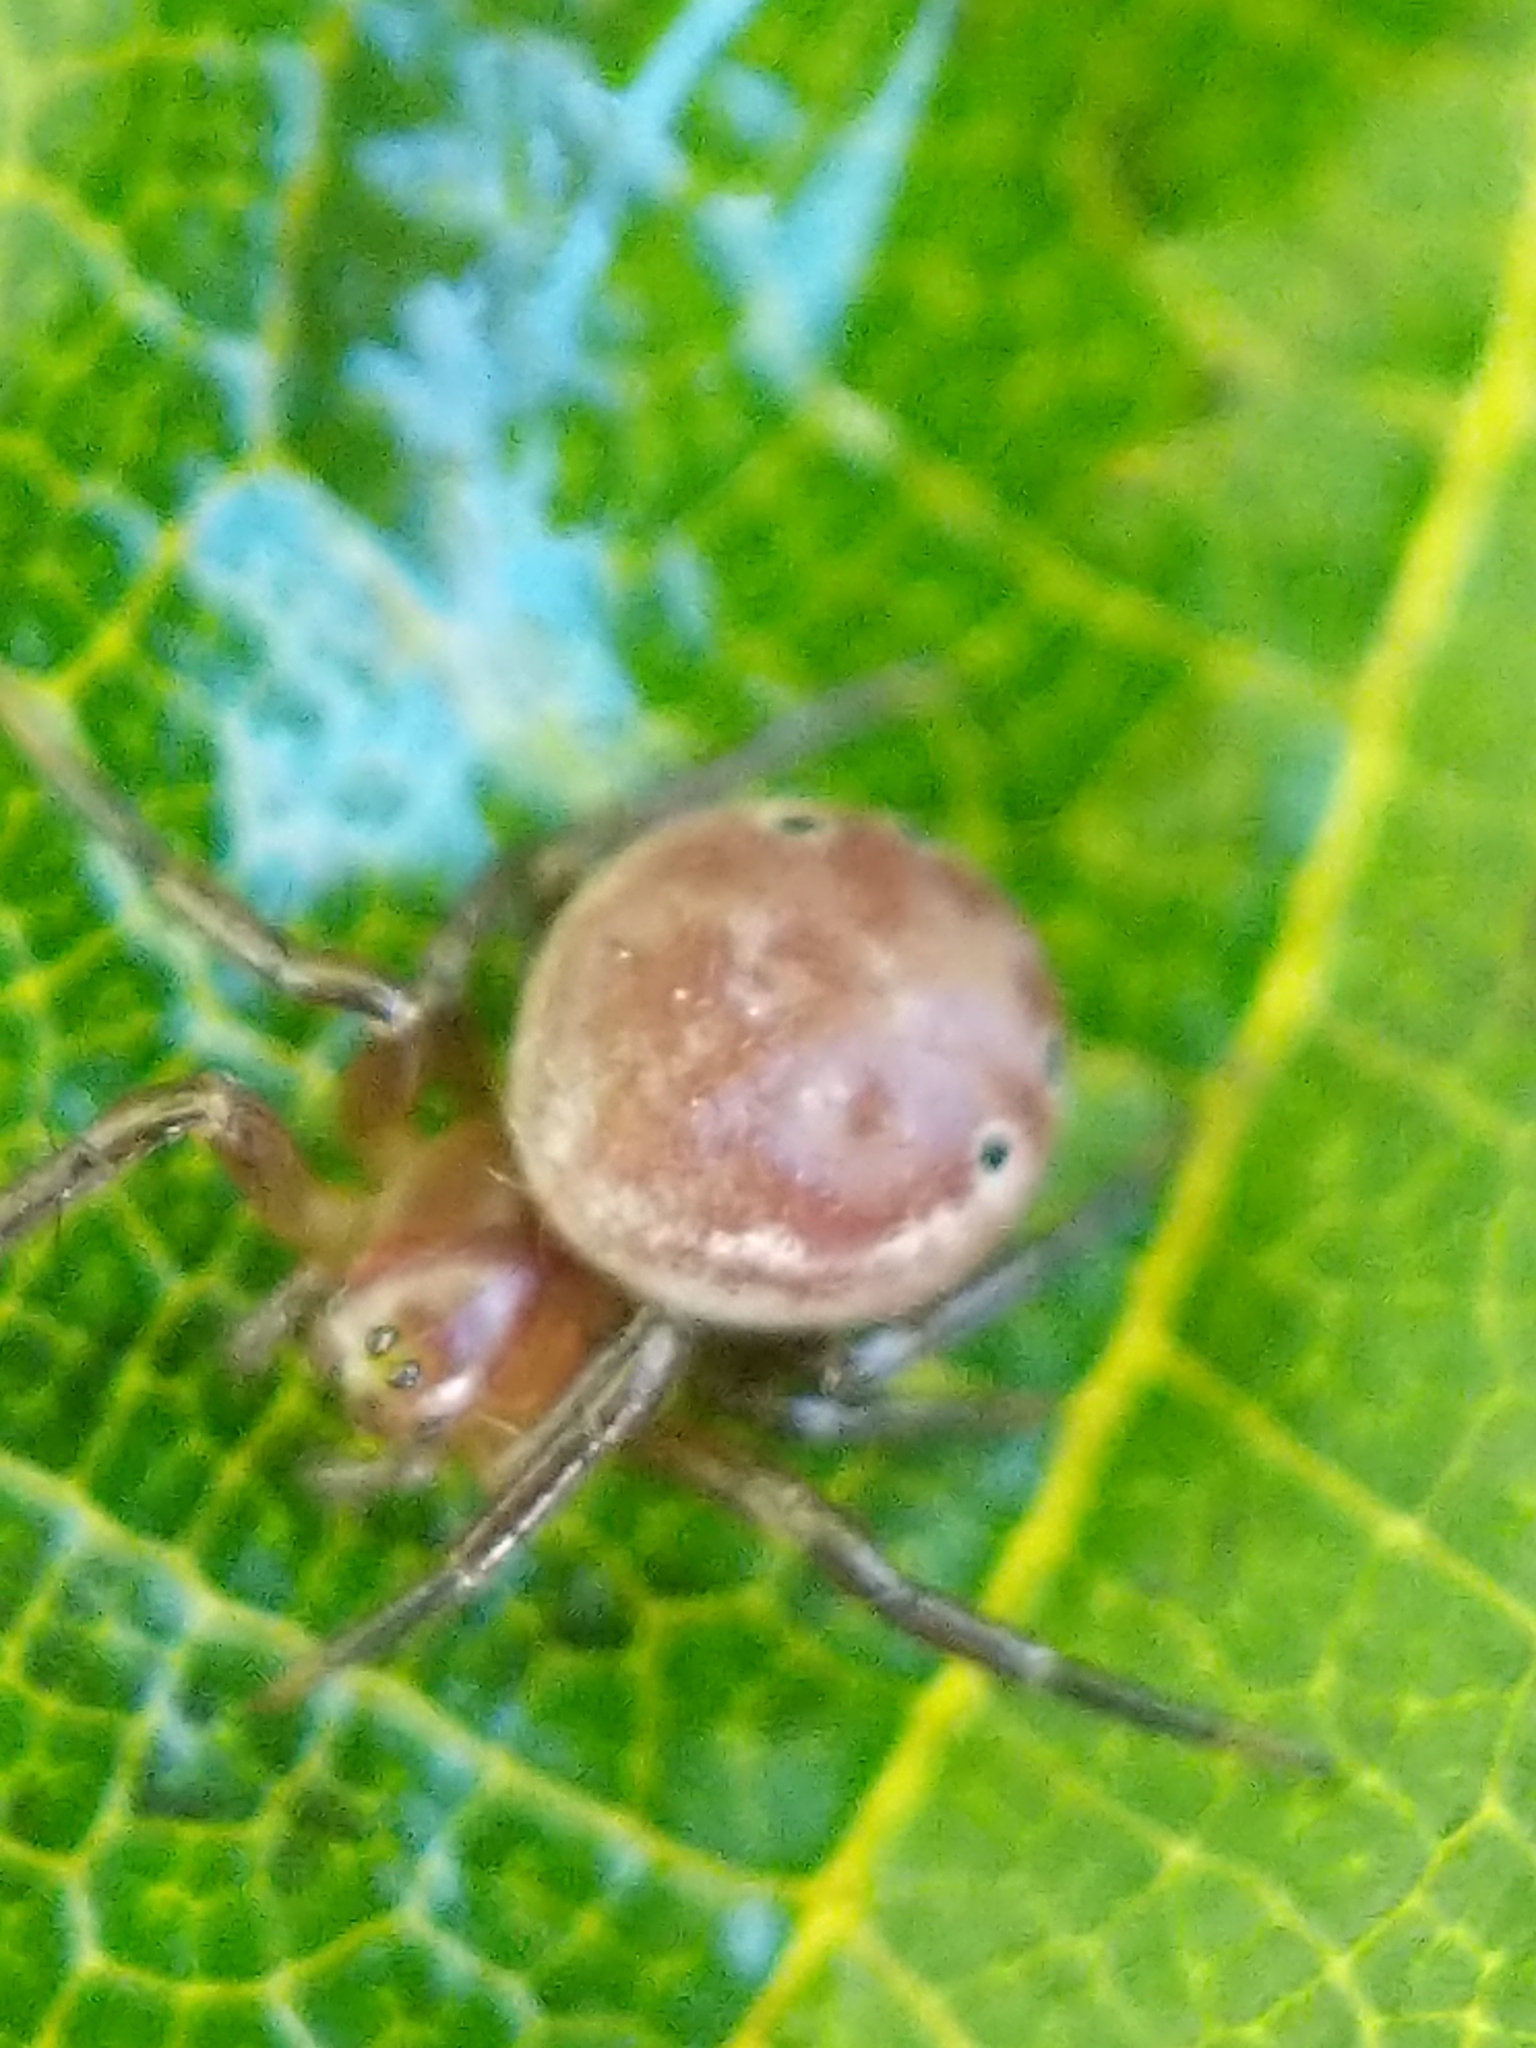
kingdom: Animalia
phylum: Arthropoda
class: Arachnida
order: Araneae
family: Araneidae
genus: Araniella
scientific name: Araniella displicata
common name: Sixspotted orb weaver
